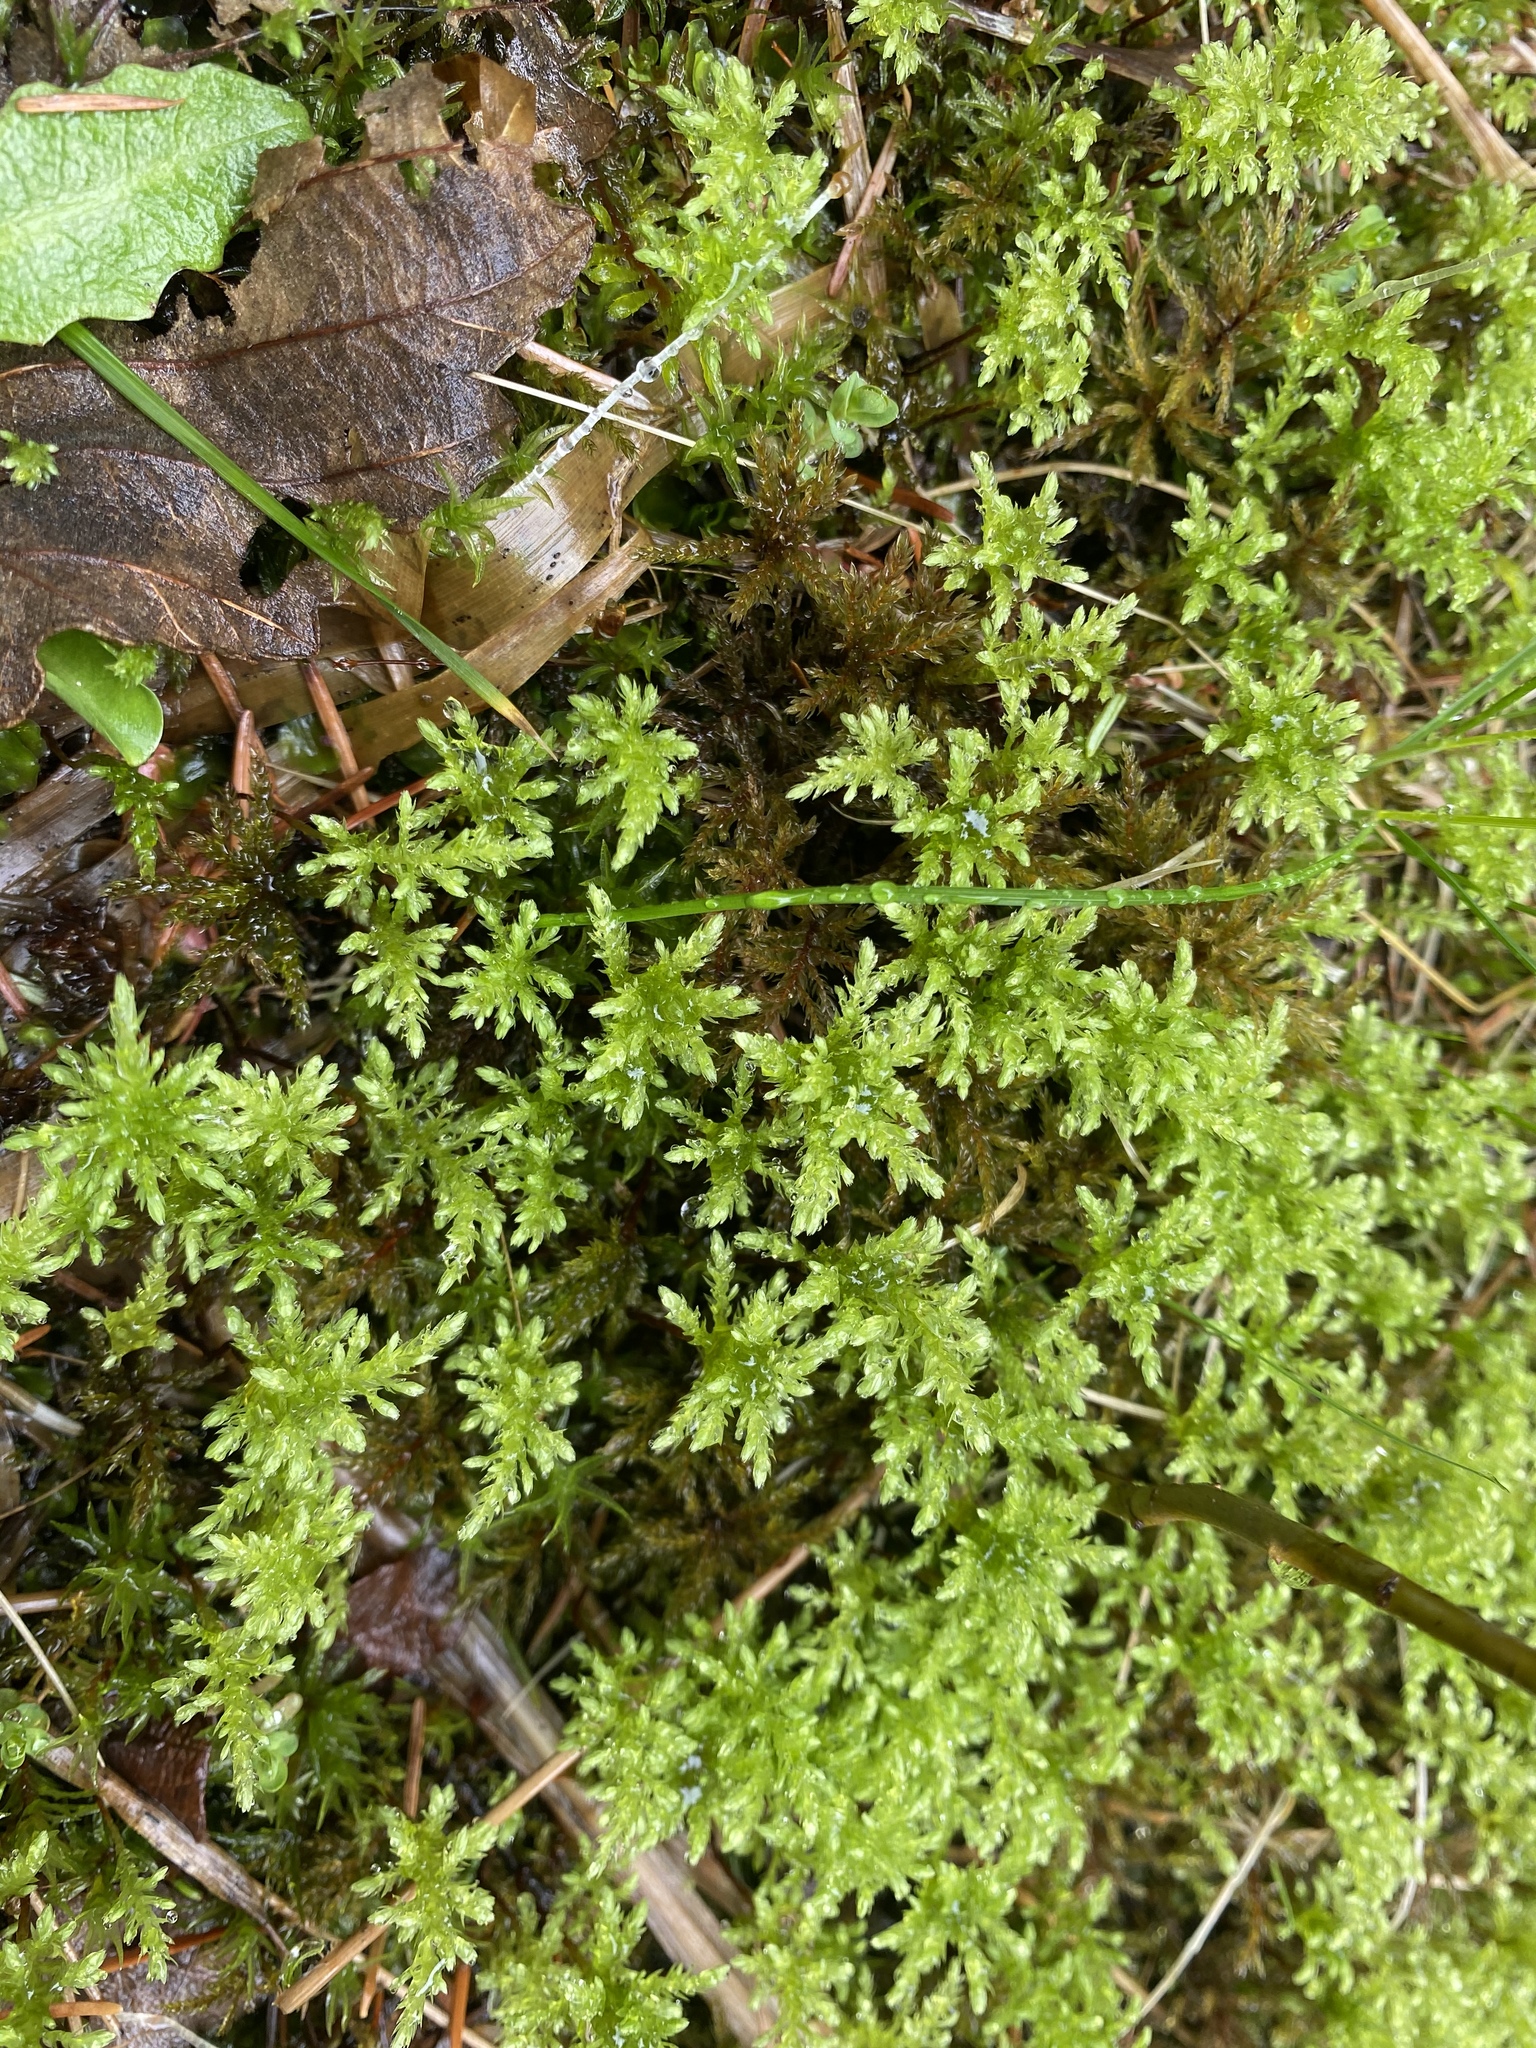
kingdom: Plantae
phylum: Bryophyta
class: Bryopsida
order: Bryales
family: Mniaceae
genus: Leucolepis
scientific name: Leucolepis acanthoneura
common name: Leucolepis umbrella moss
